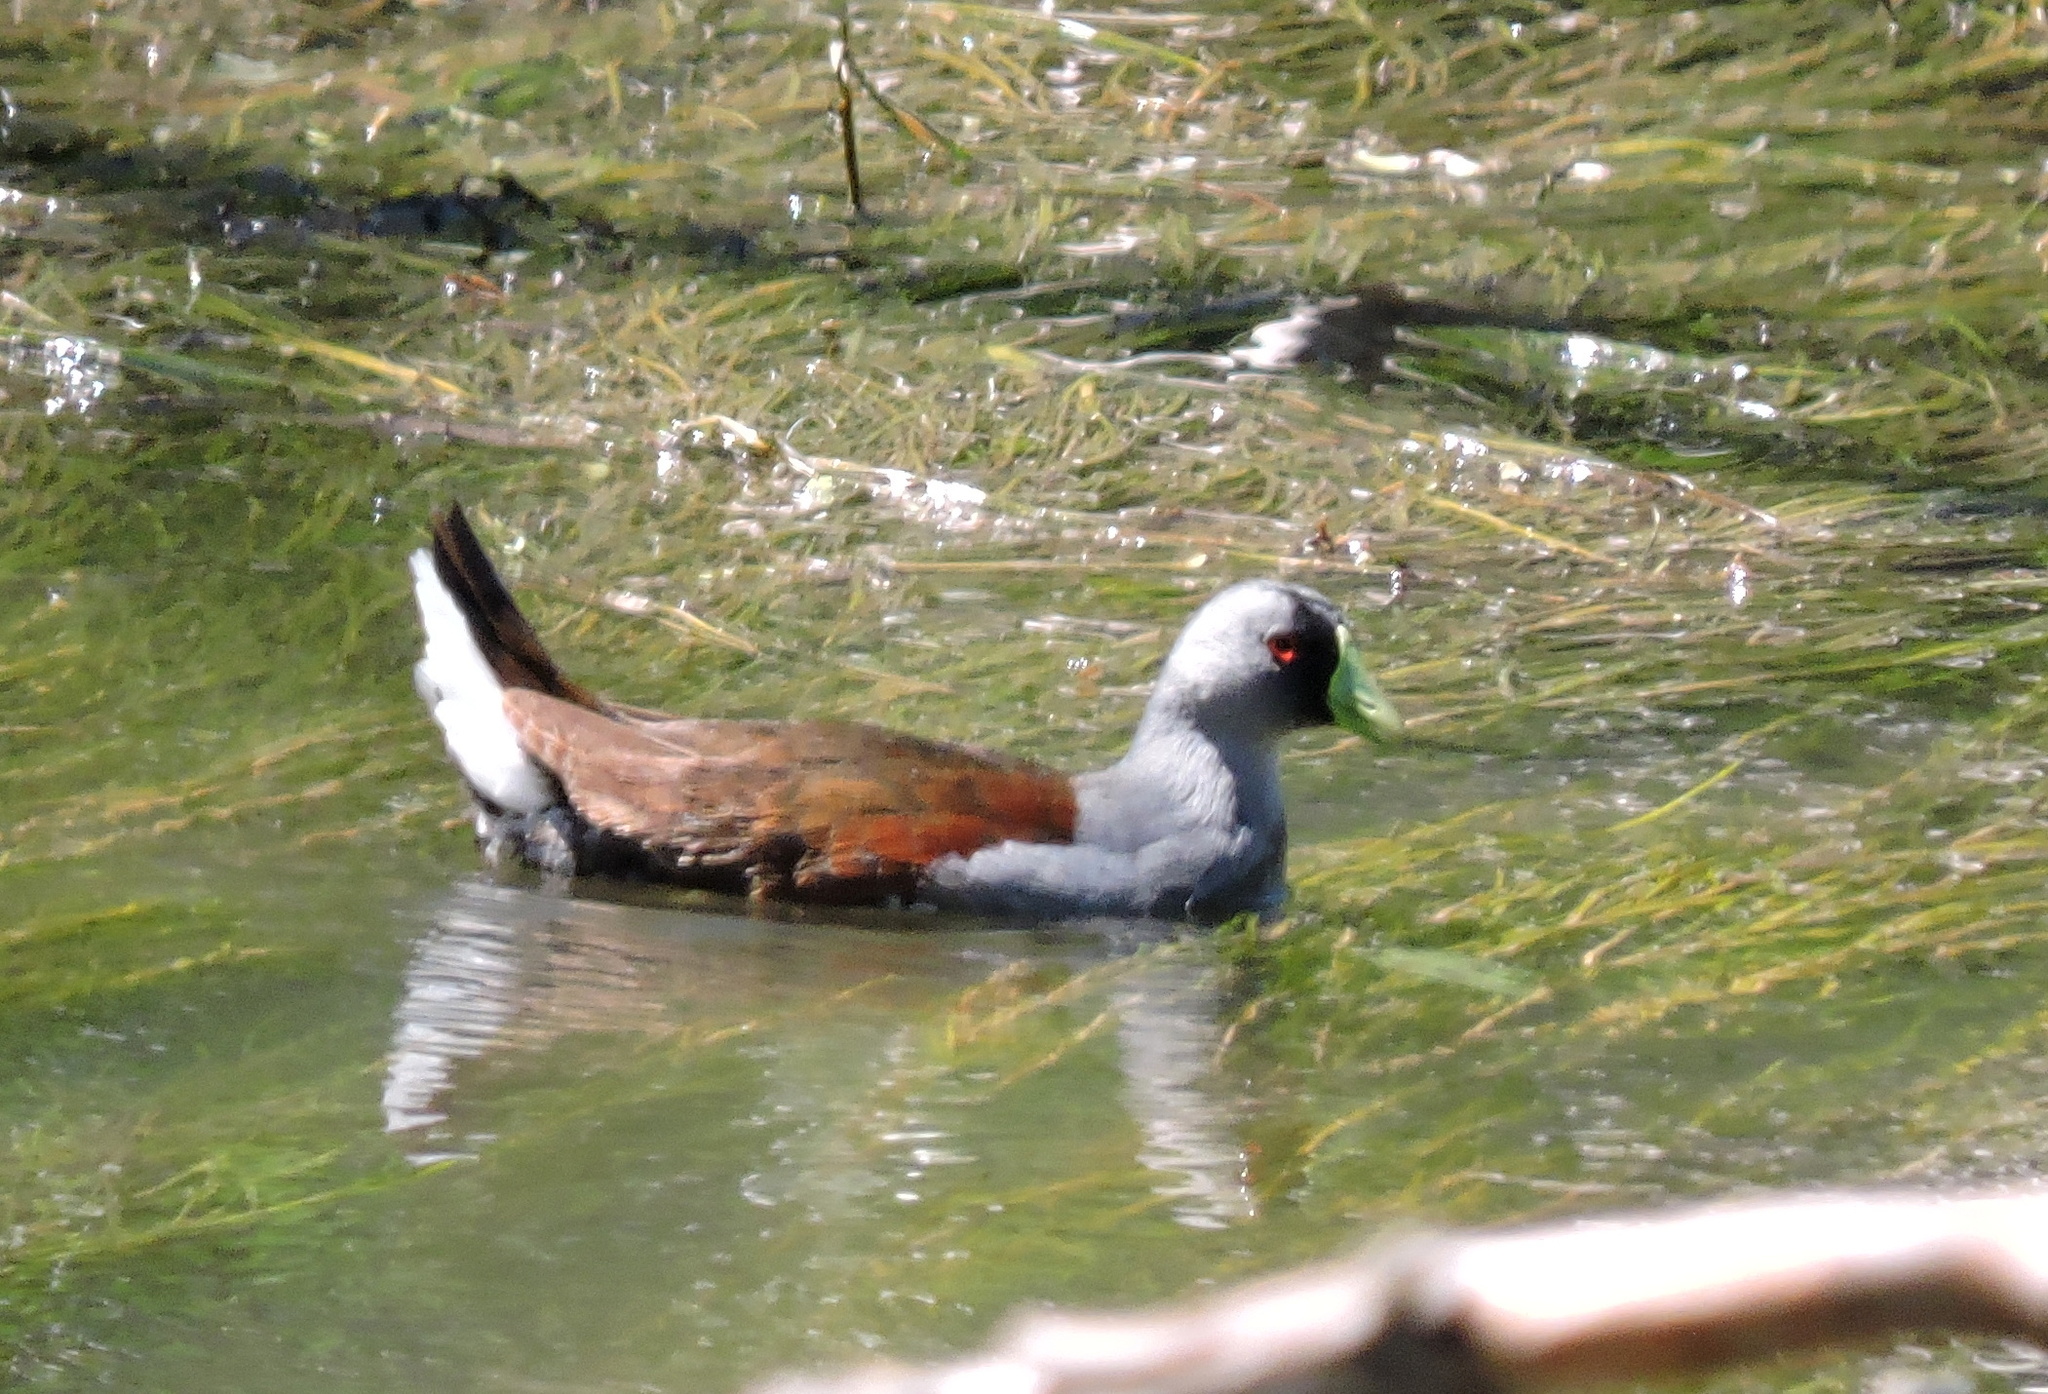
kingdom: Animalia
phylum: Chordata
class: Aves
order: Gruiformes
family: Rallidae
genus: Gallinula
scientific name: Gallinula melanops
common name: Spot-flanked gallinule
